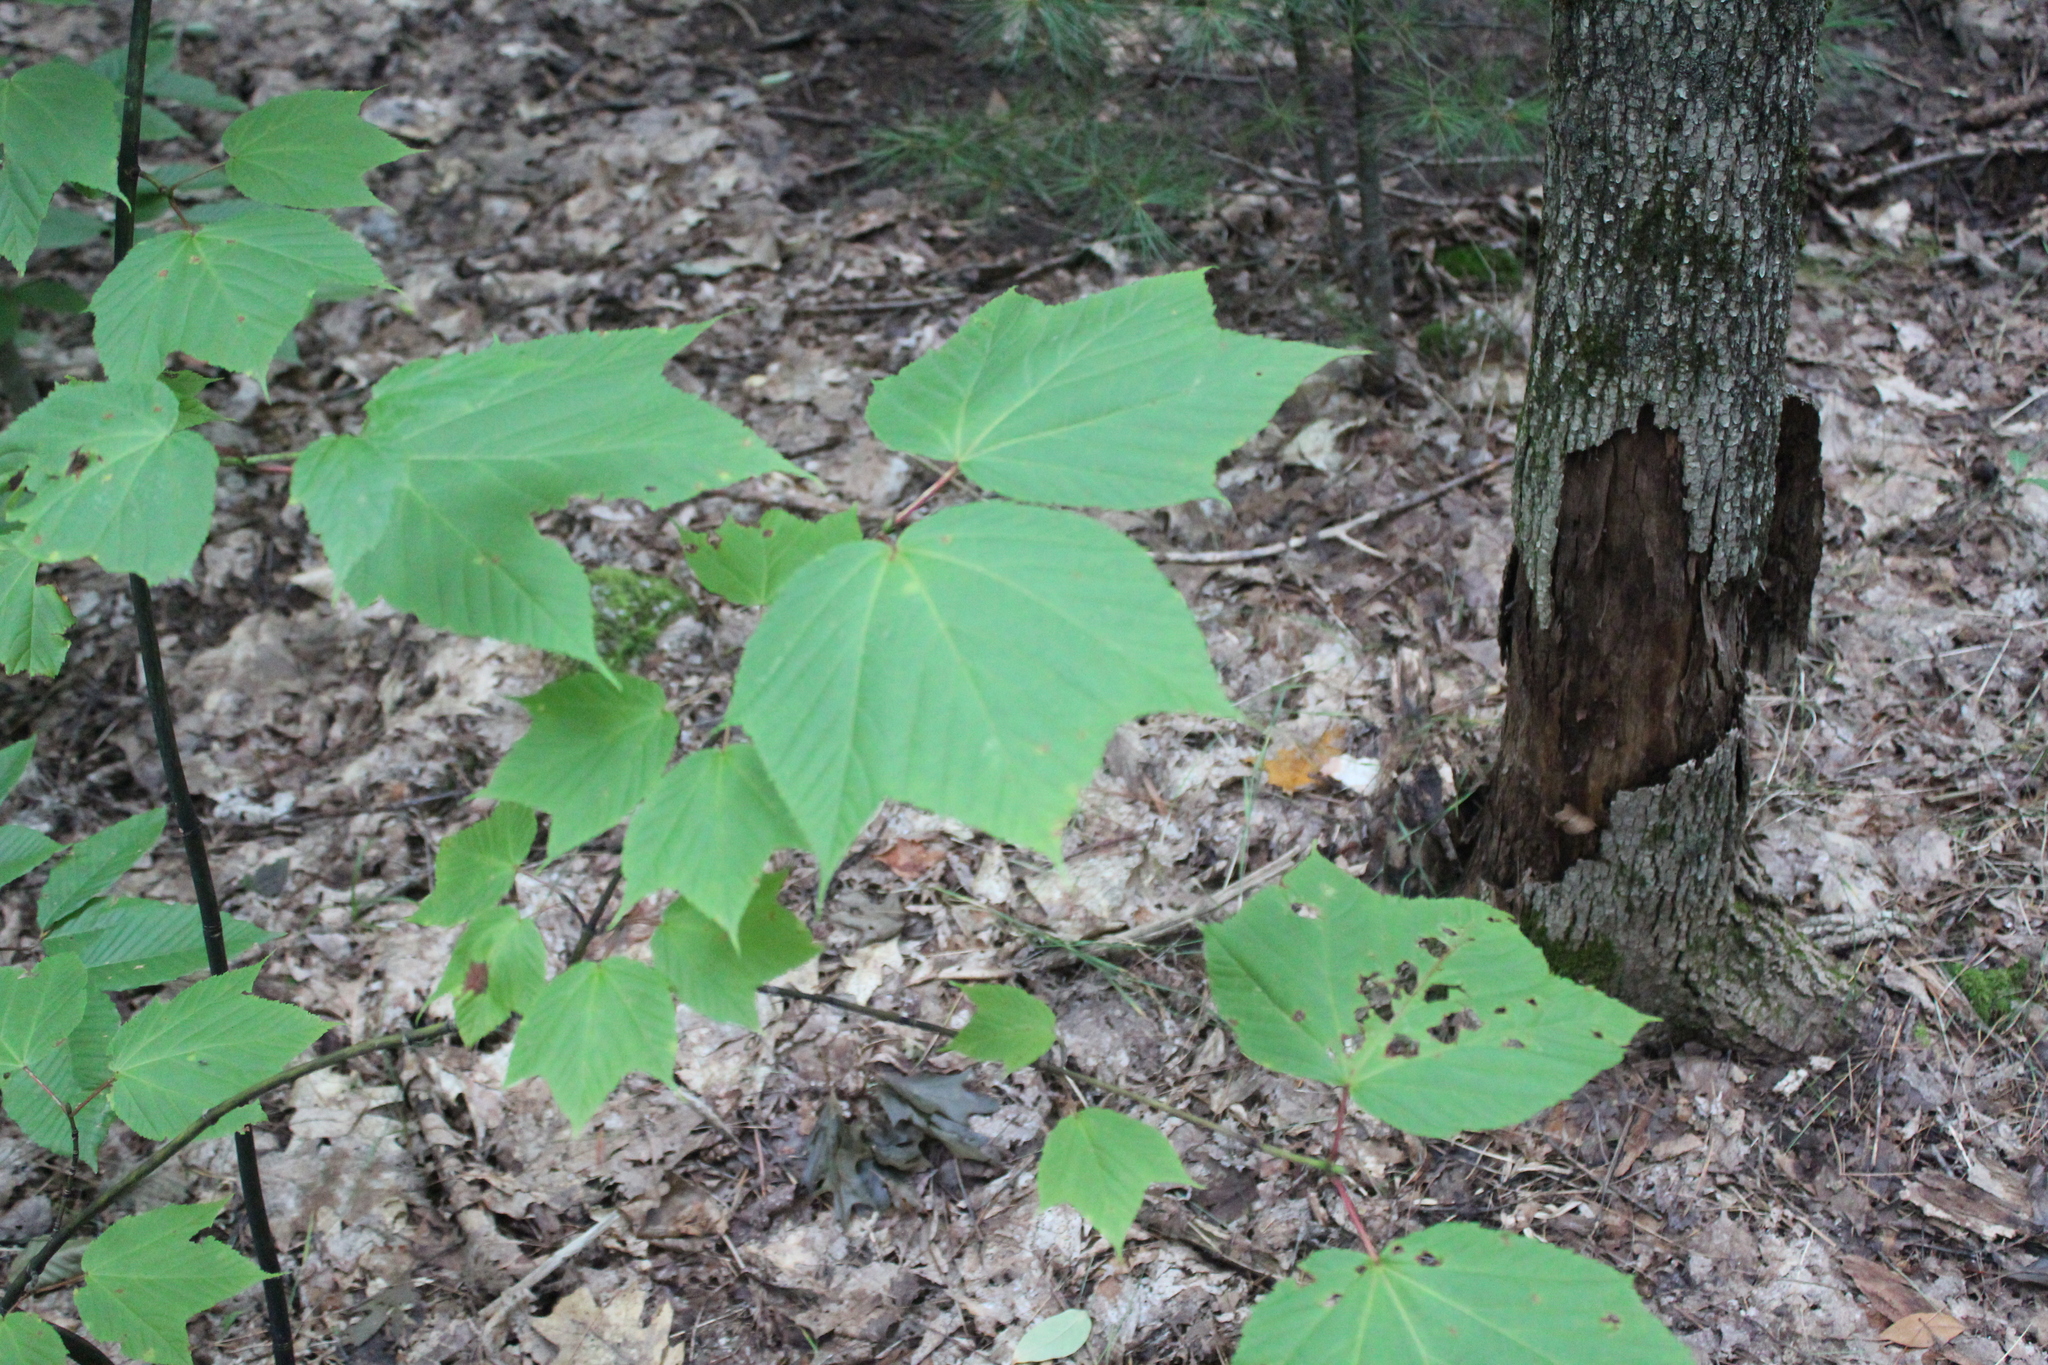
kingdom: Plantae
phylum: Tracheophyta
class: Magnoliopsida
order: Sapindales
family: Sapindaceae
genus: Acer
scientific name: Acer pensylvanicum
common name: Moosewood
